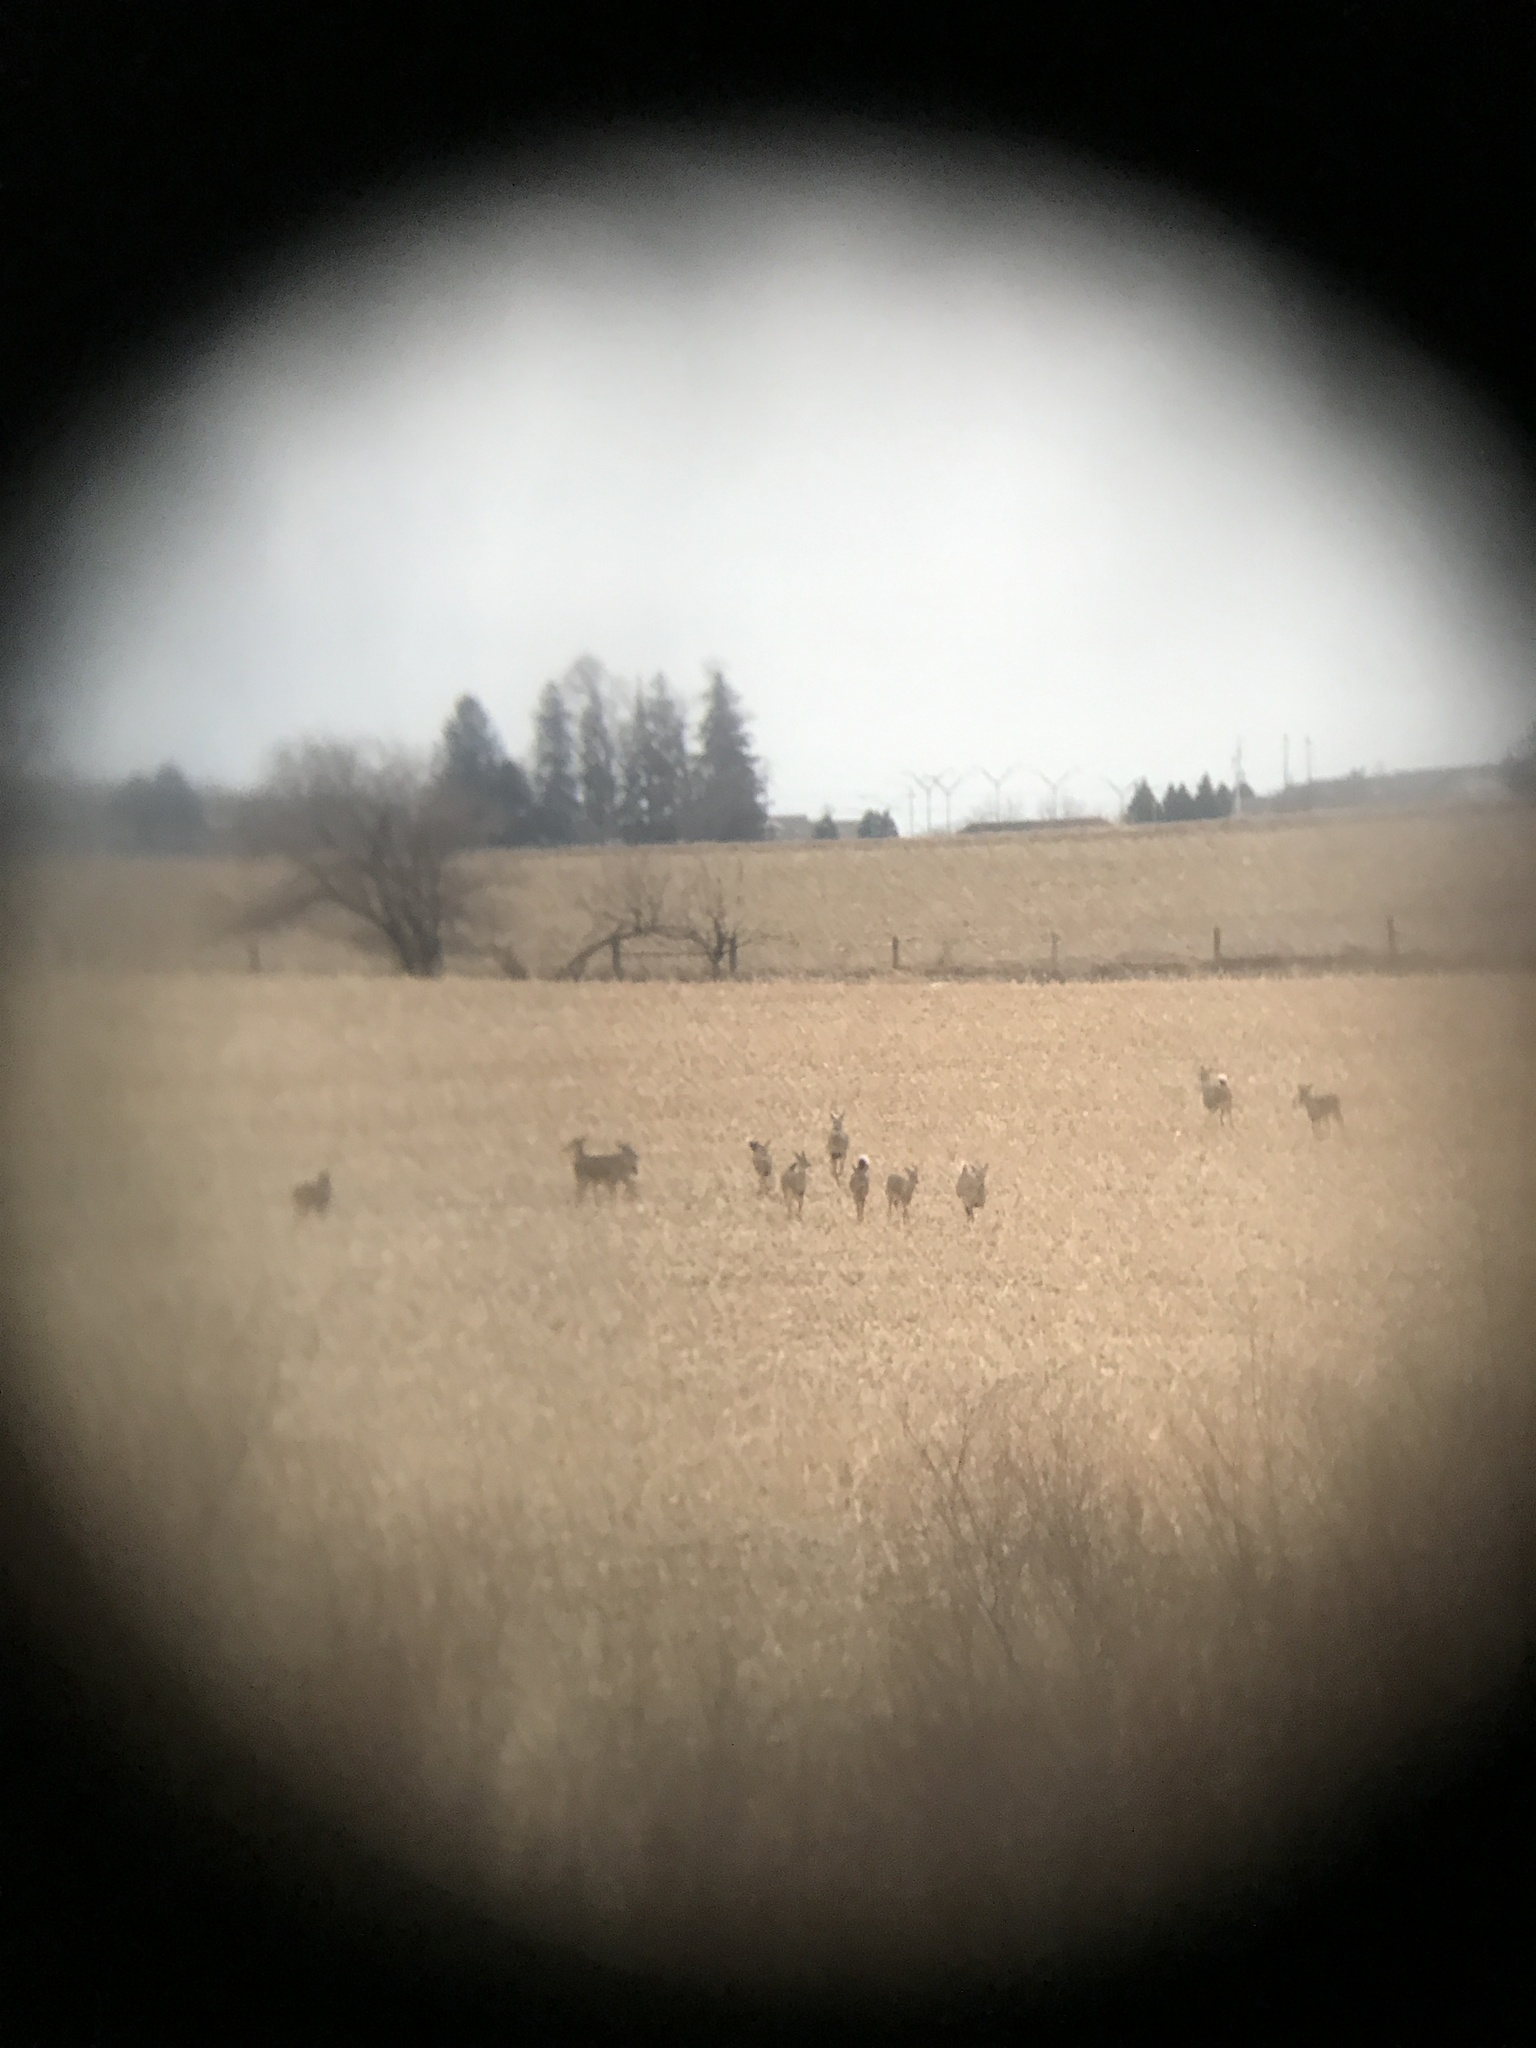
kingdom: Animalia
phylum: Chordata
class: Mammalia
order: Artiodactyla
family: Cervidae
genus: Odocoileus
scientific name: Odocoileus virginianus
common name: White-tailed deer
